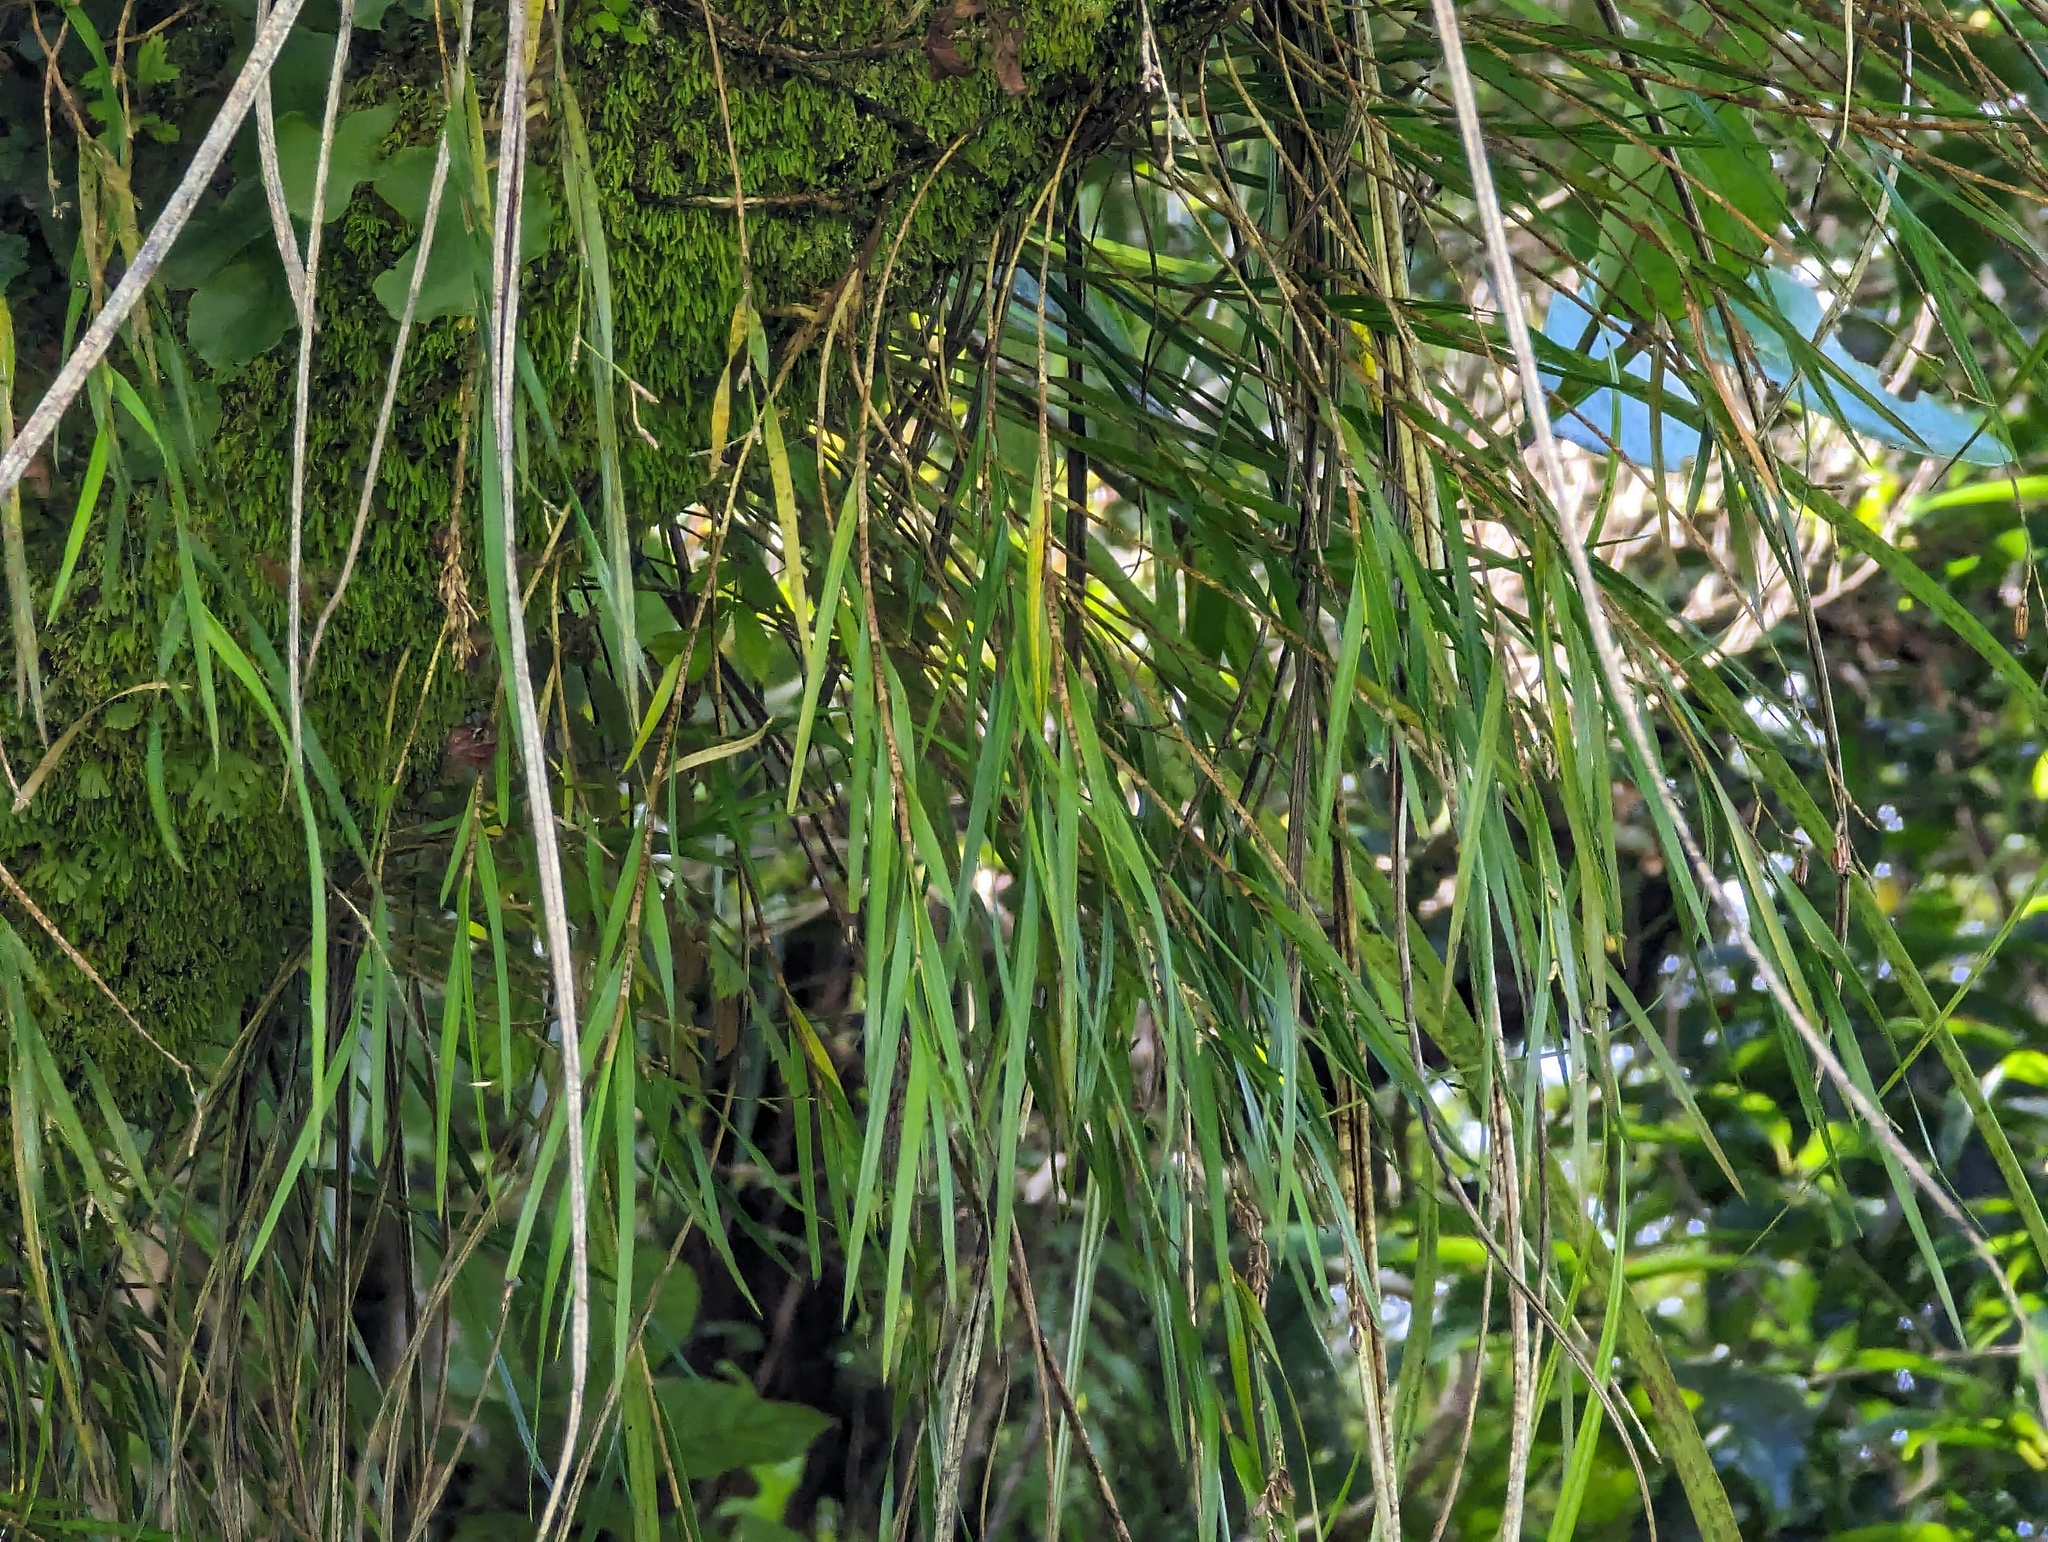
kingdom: Plantae
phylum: Tracheophyta
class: Liliopsida
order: Asparagales
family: Orchidaceae
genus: Earina
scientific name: Earina mucronata
